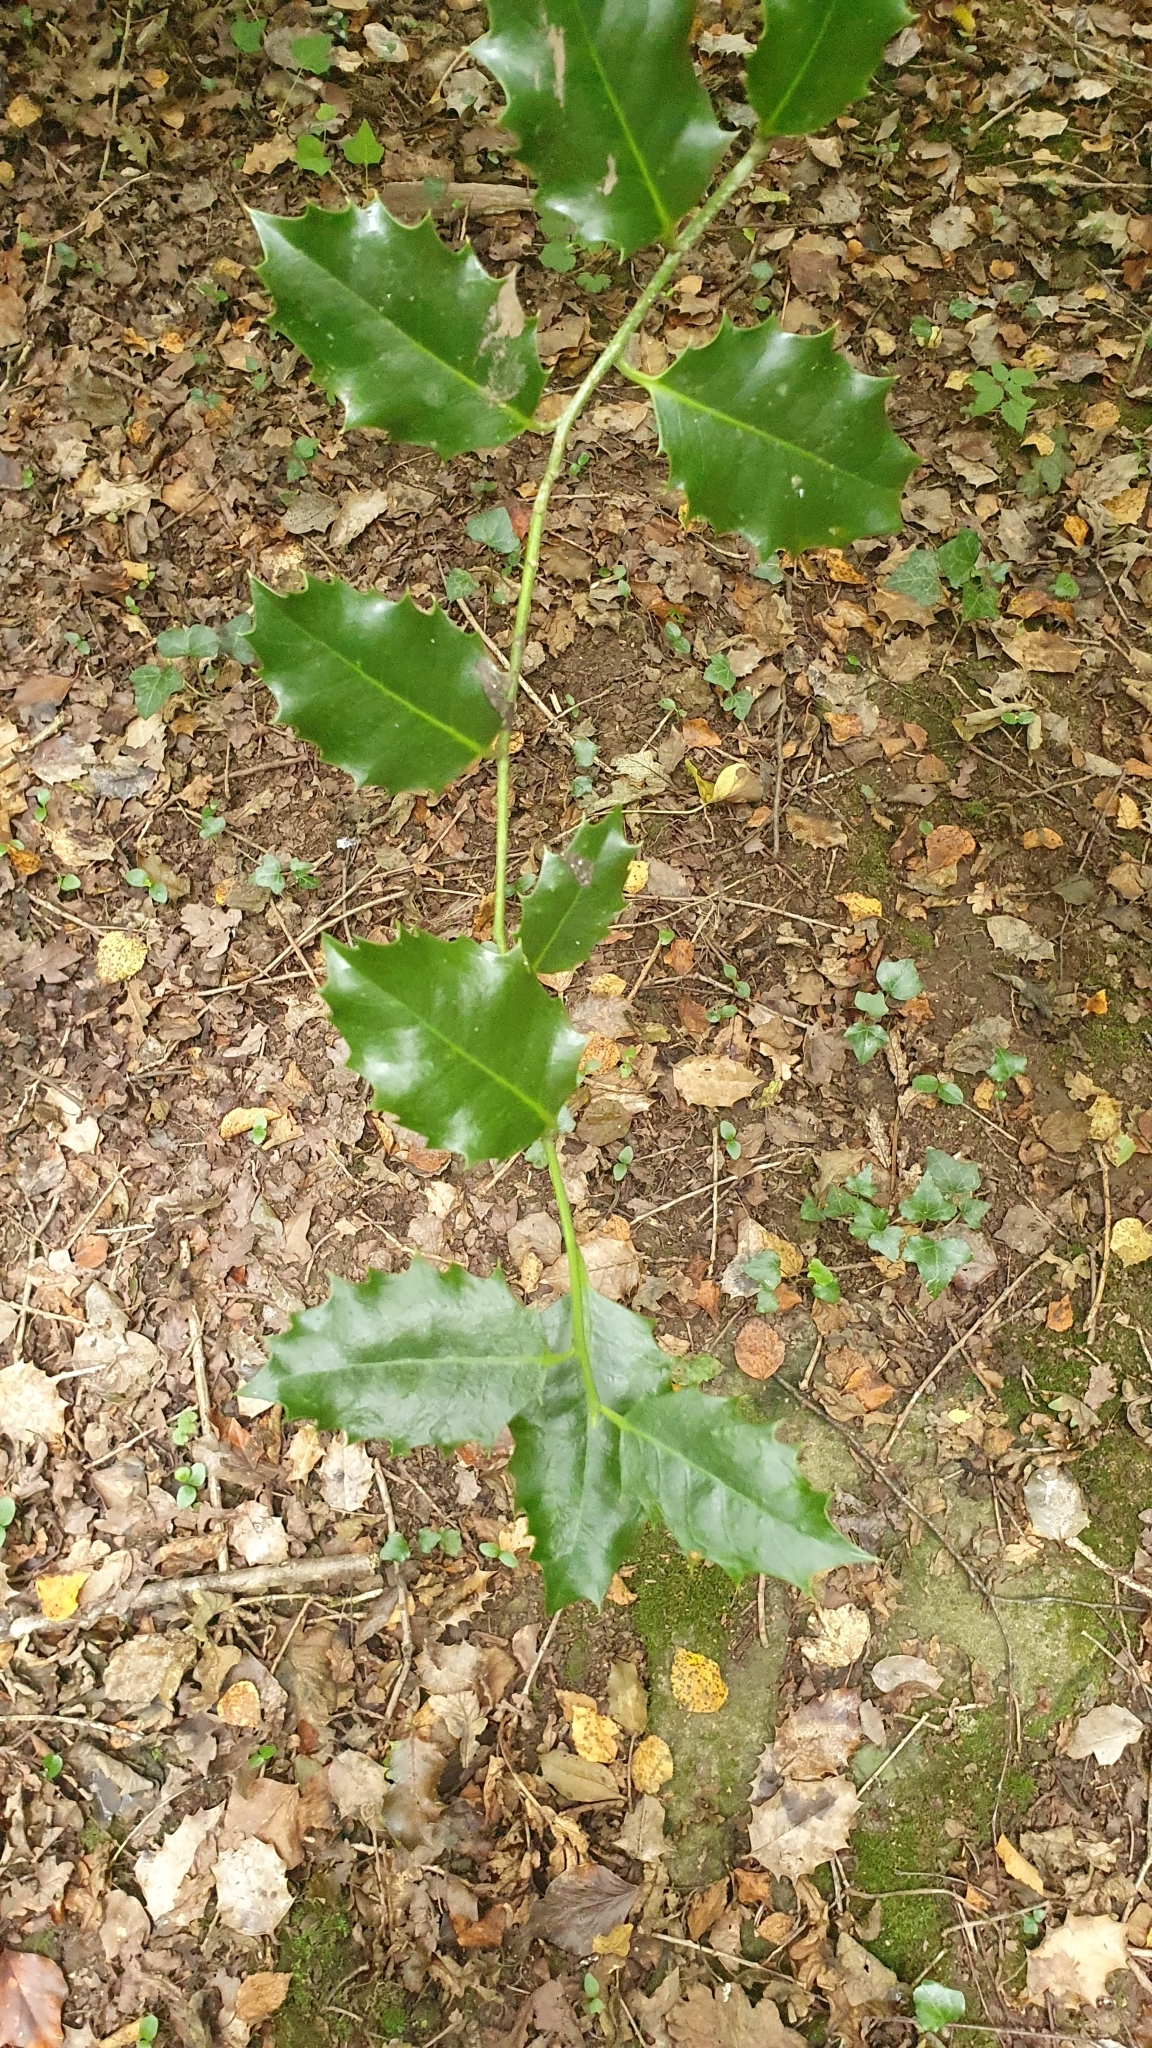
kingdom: Plantae
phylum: Tracheophyta
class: Magnoliopsida
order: Aquifoliales
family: Aquifoliaceae
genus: Ilex
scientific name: Ilex aquifolium
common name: English holly
